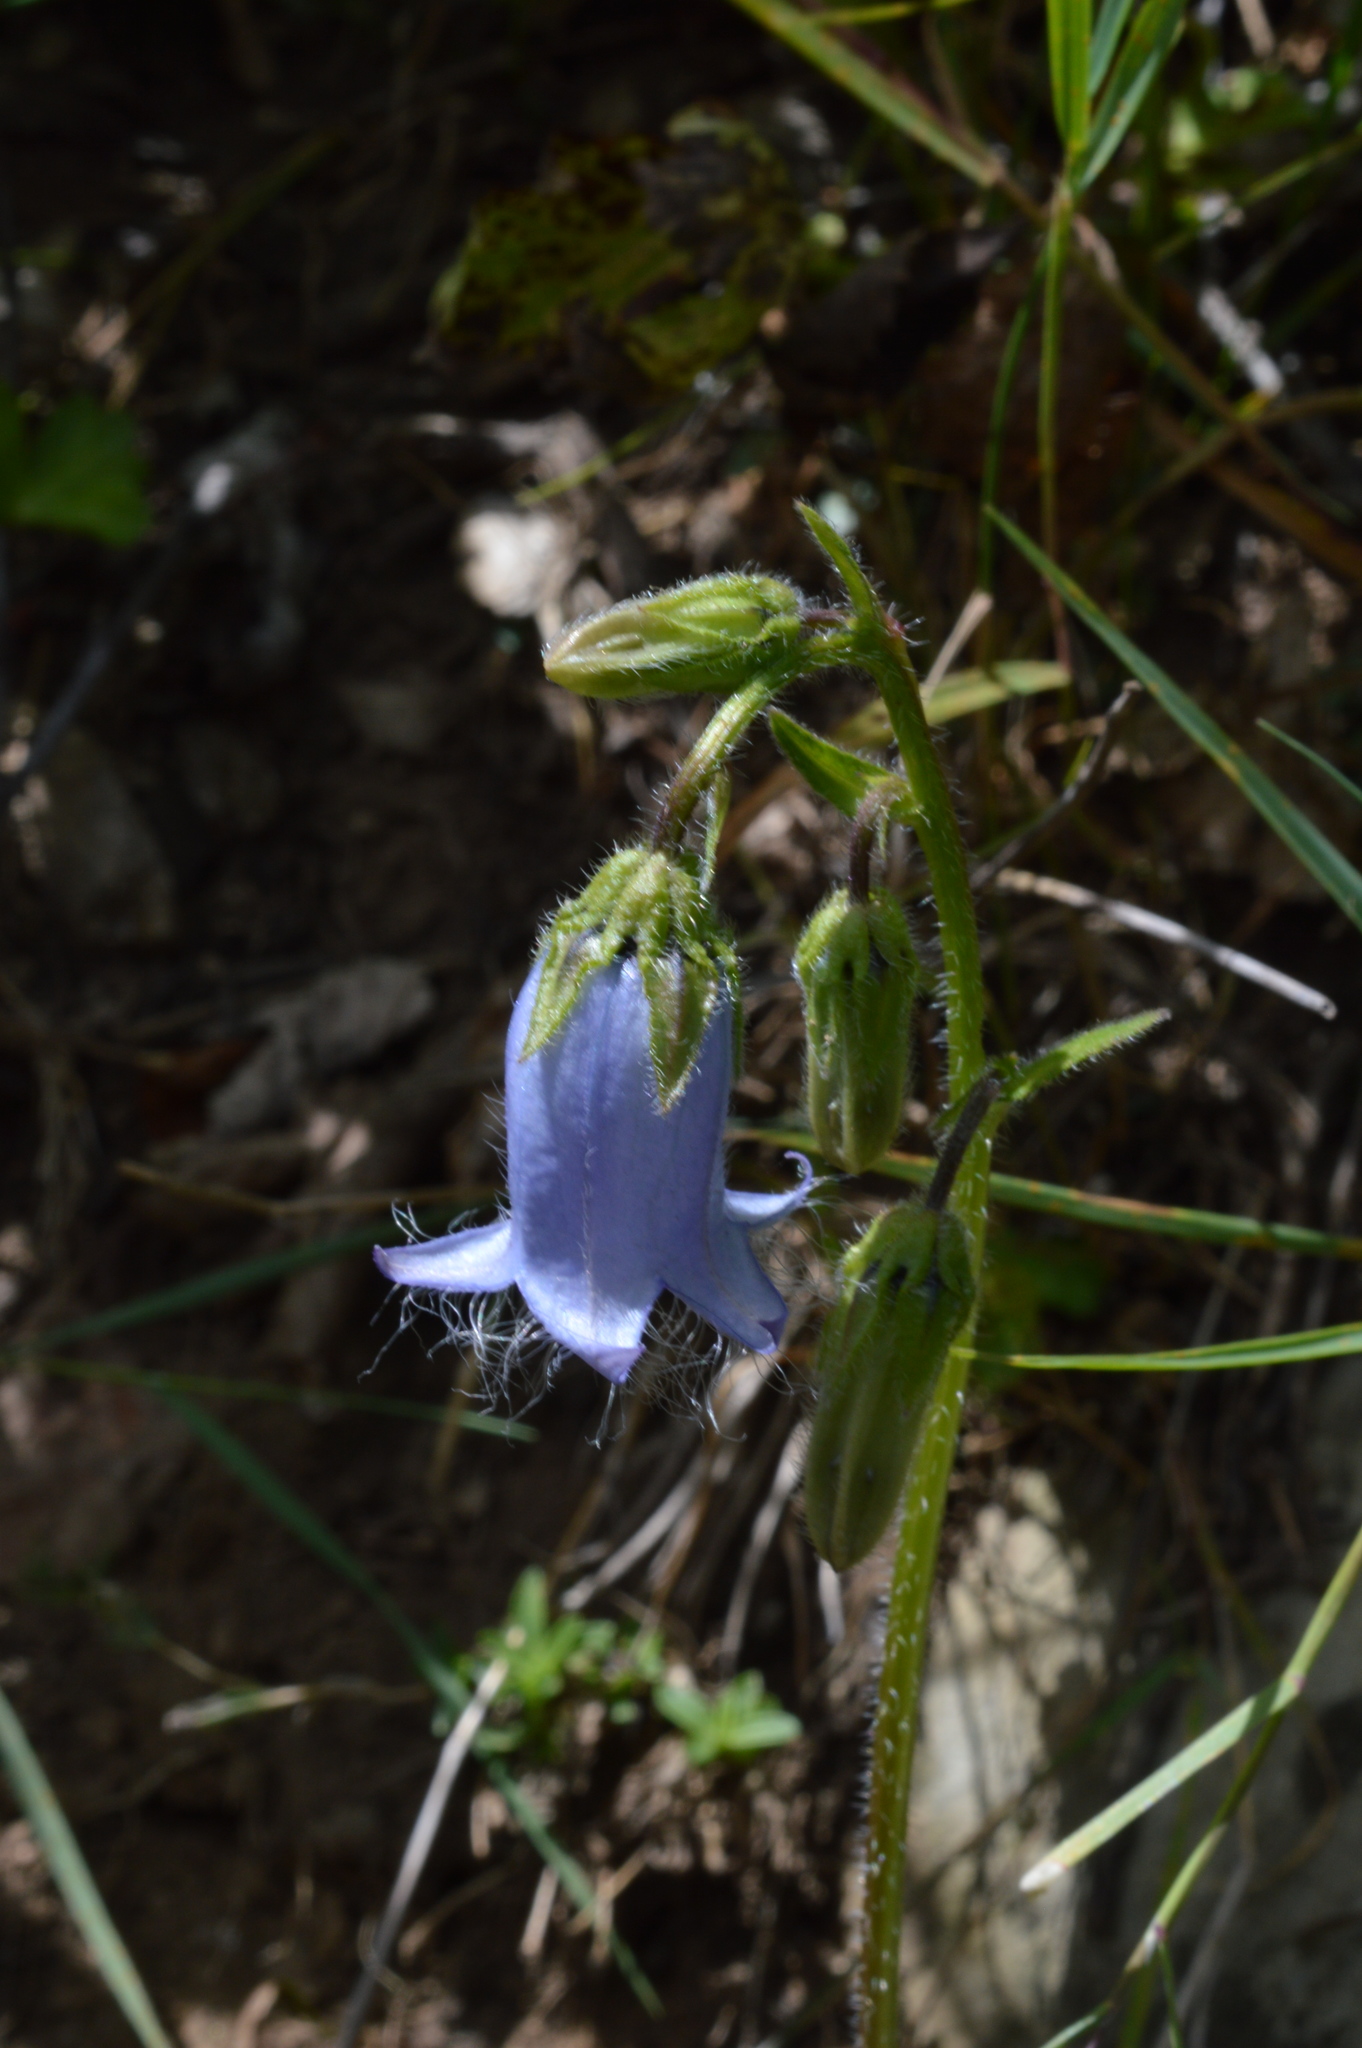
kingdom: Plantae
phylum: Tracheophyta
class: Magnoliopsida
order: Asterales
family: Campanulaceae
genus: Campanula
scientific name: Campanula barbata
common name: Bearded bellflower
